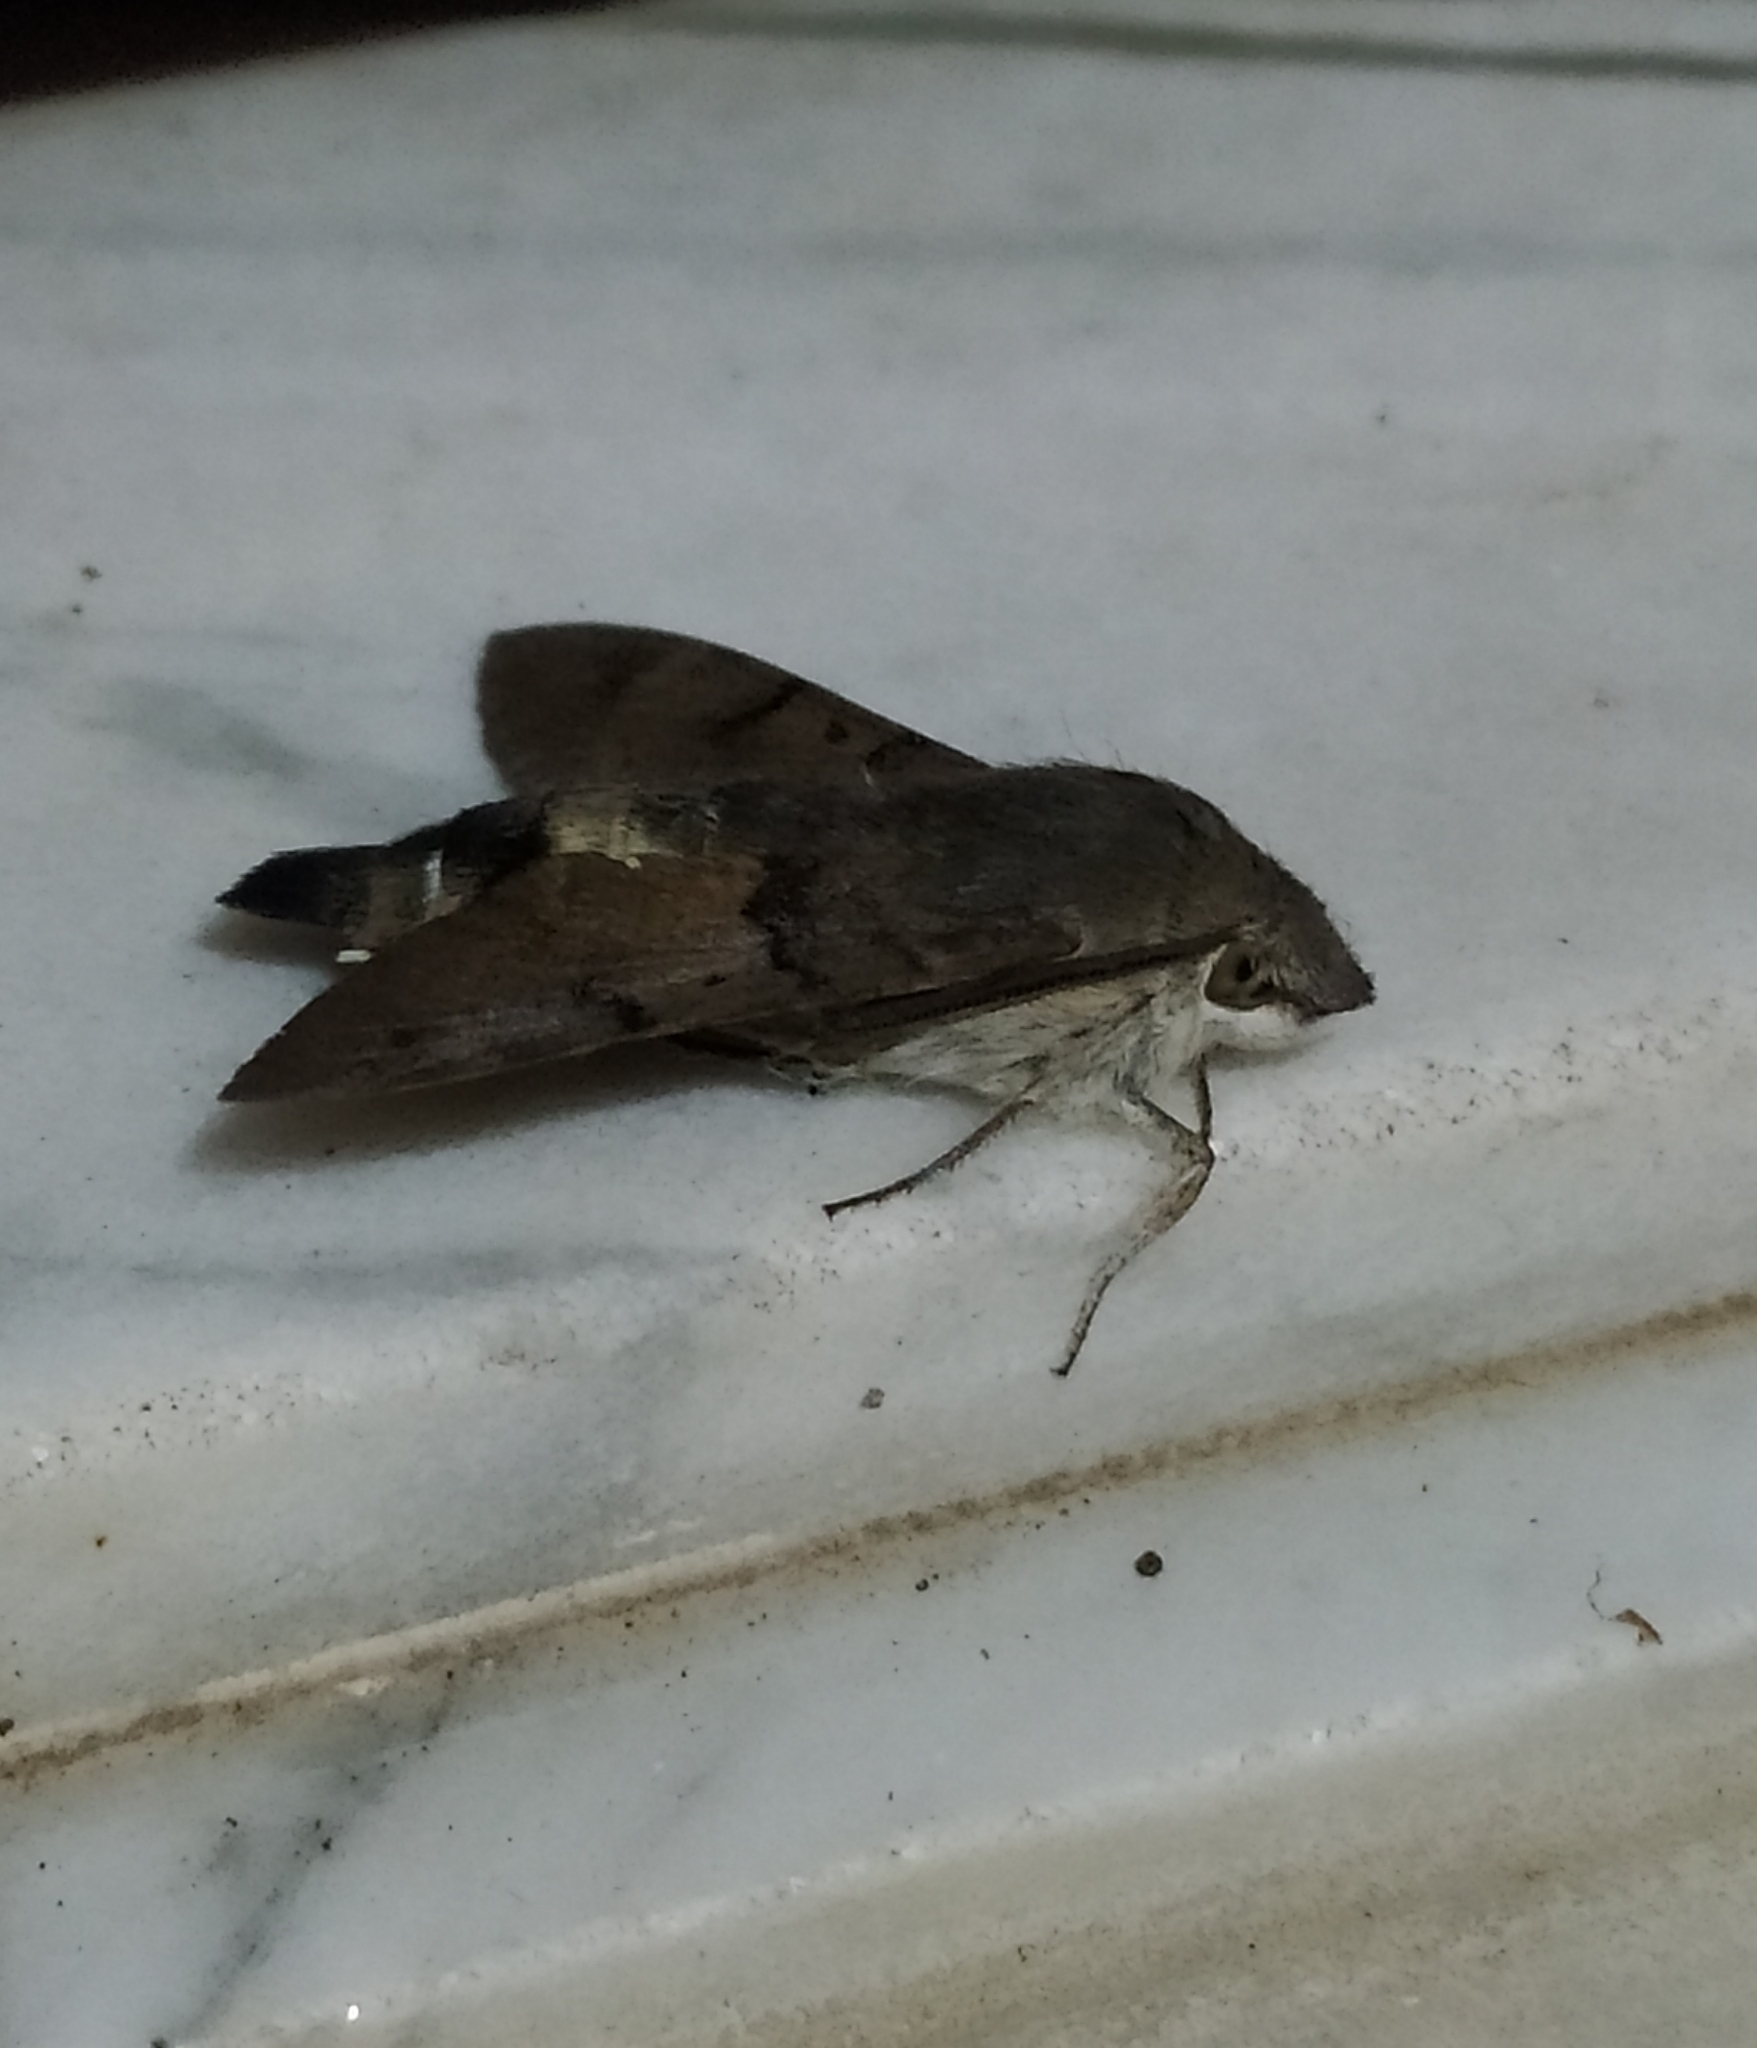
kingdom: Animalia
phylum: Arthropoda
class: Insecta
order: Lepidoptera
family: Sphingidae
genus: Macroglossum
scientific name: Macroglossum stellatarum
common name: Humming-bird hawk-moth
